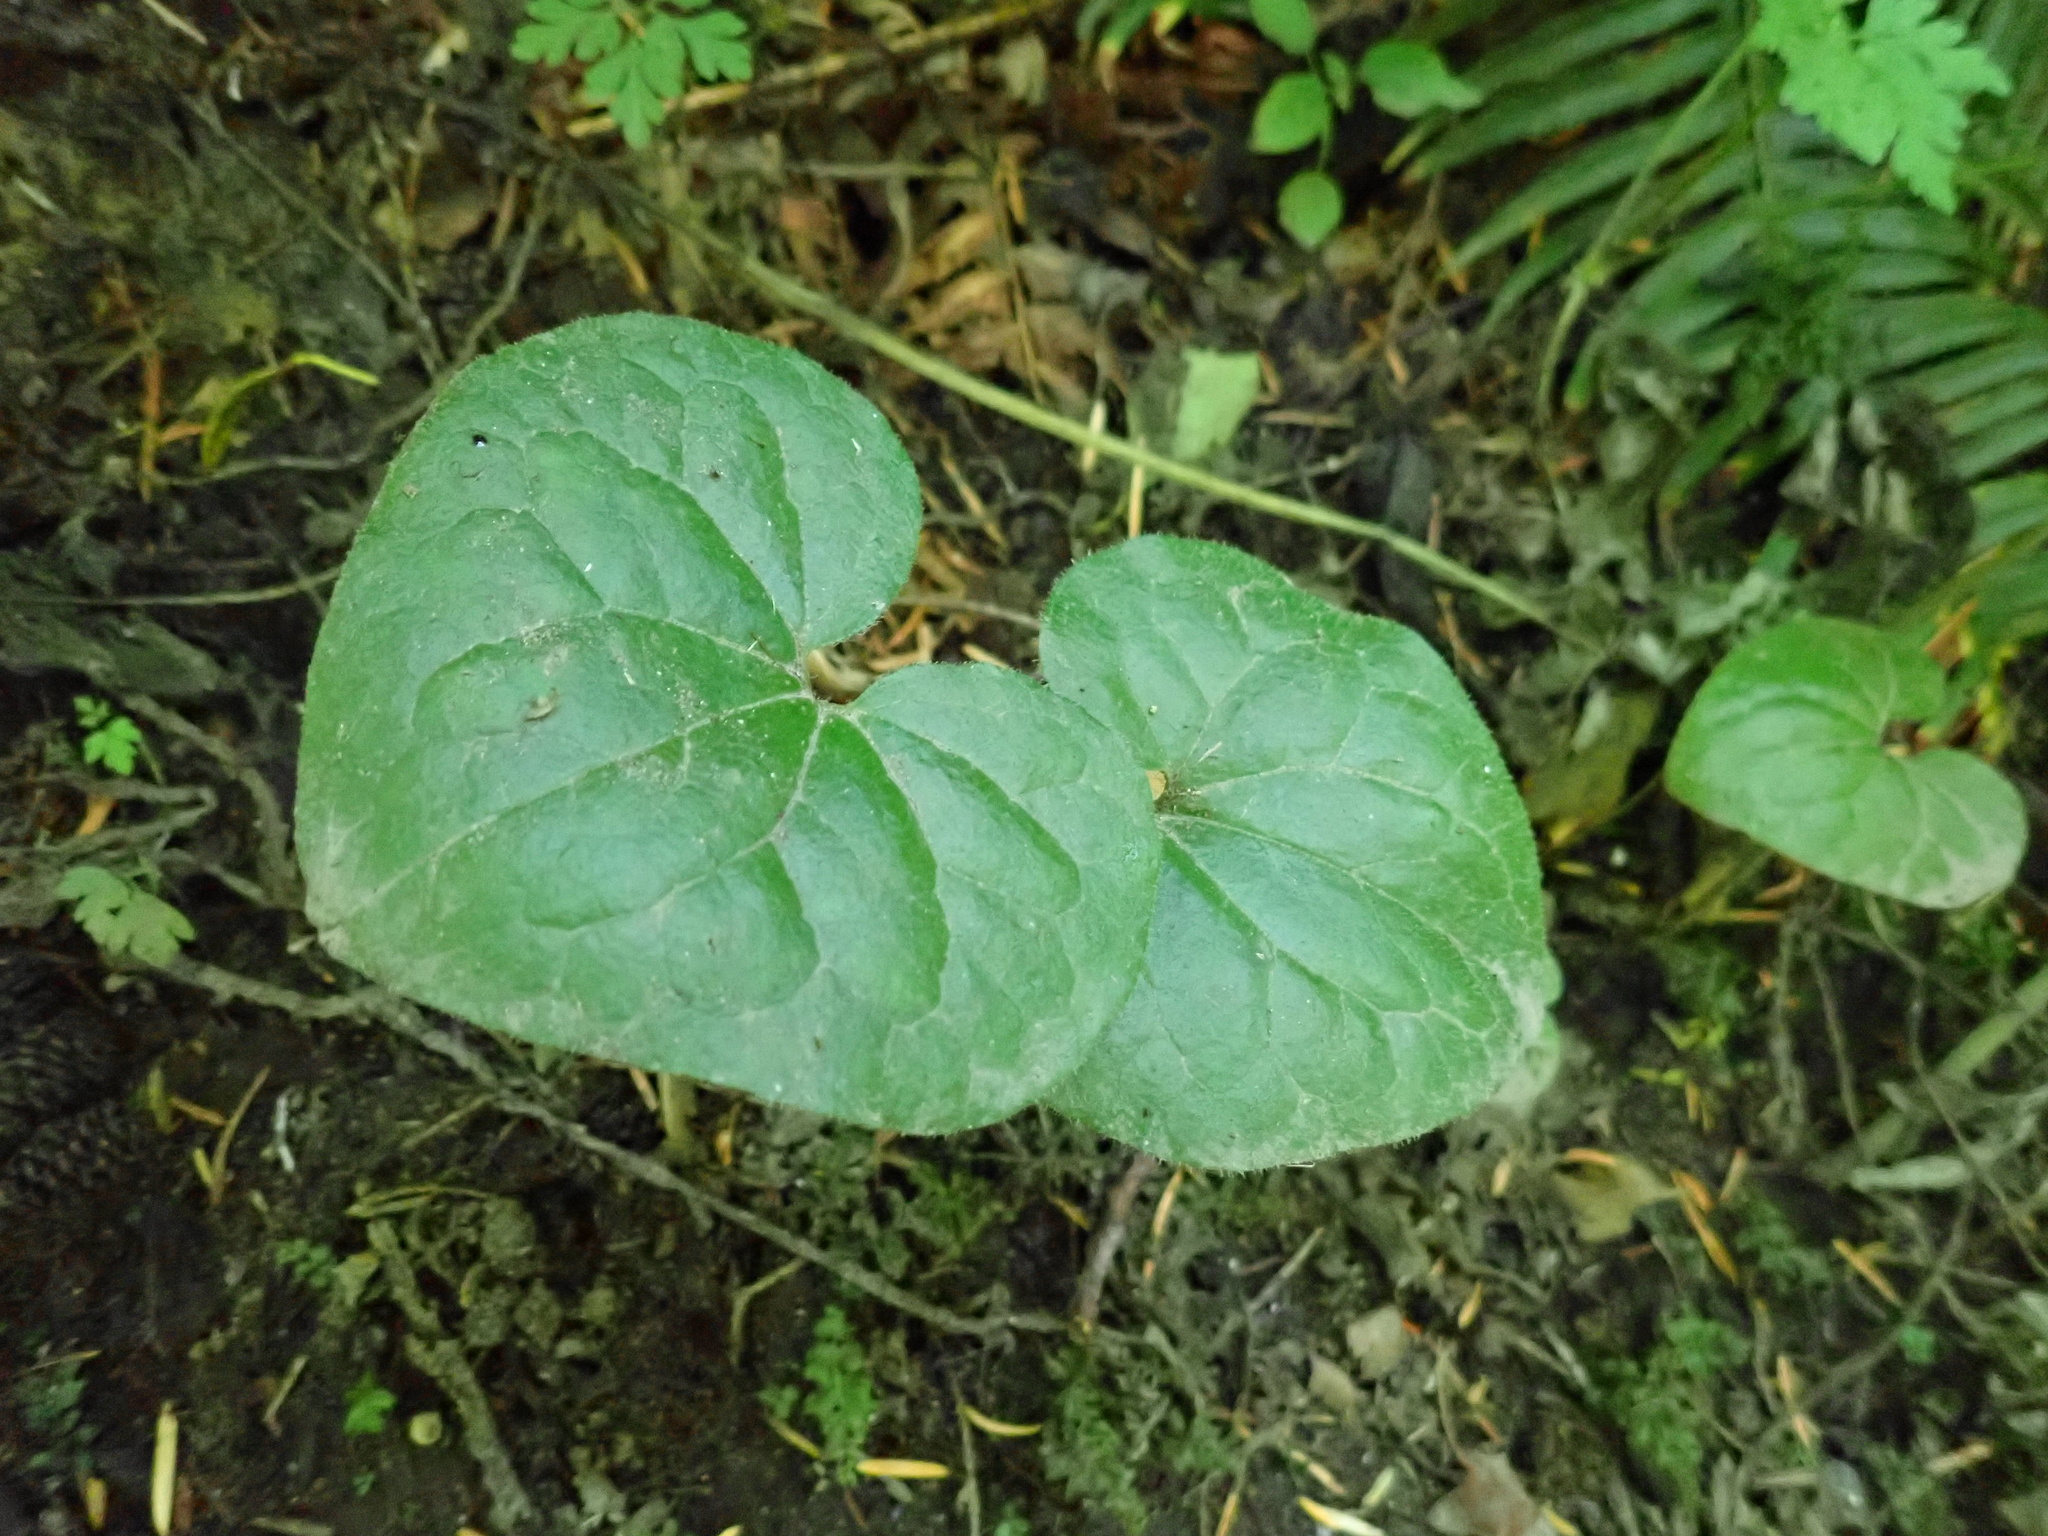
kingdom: Plantae
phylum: Tracheophyta
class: Magnoliopsida
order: Piperales
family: Aristolochiaceae
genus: Asarum
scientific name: Asarum caudatum
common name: Wild ginger
